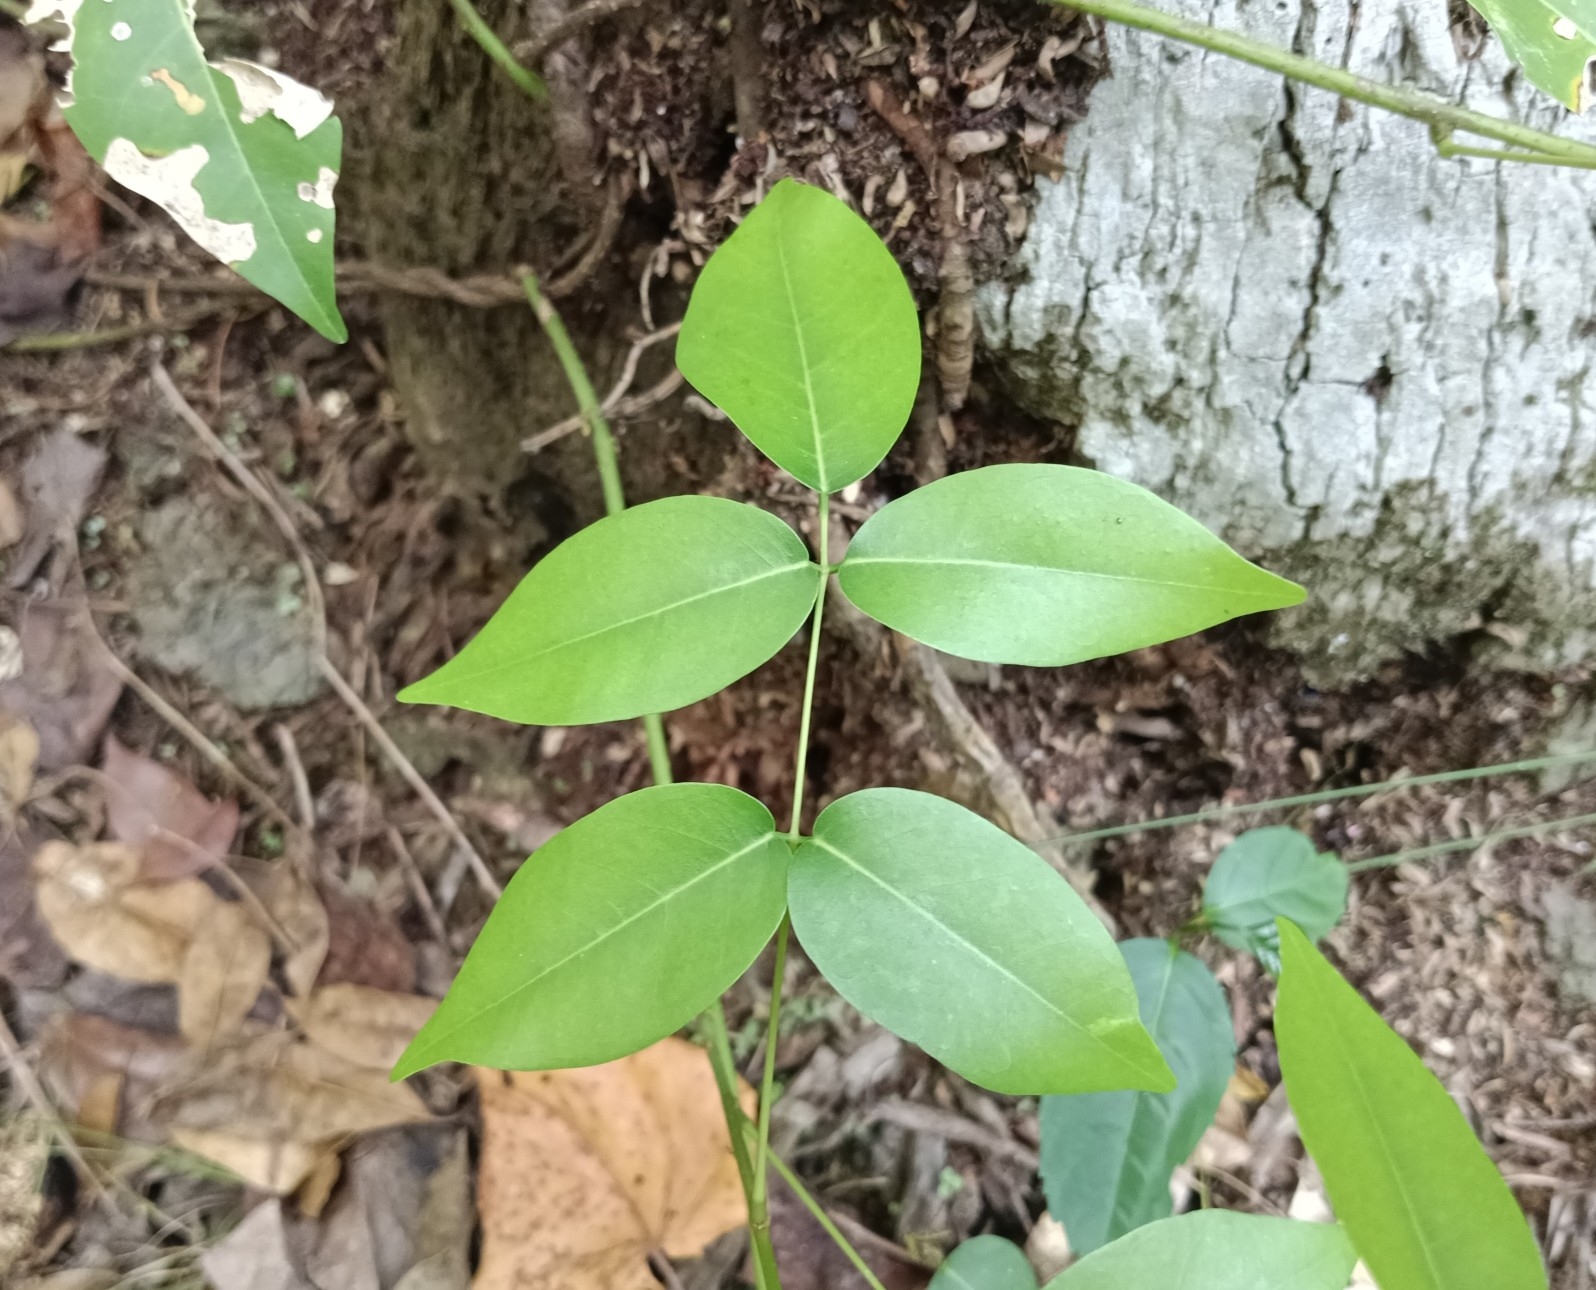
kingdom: Plantae
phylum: Tracheophyta
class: Magnoliopsida
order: Fabales
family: Fabaceae
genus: Derris
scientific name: Derris trifoliata
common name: Three-leaf derris
